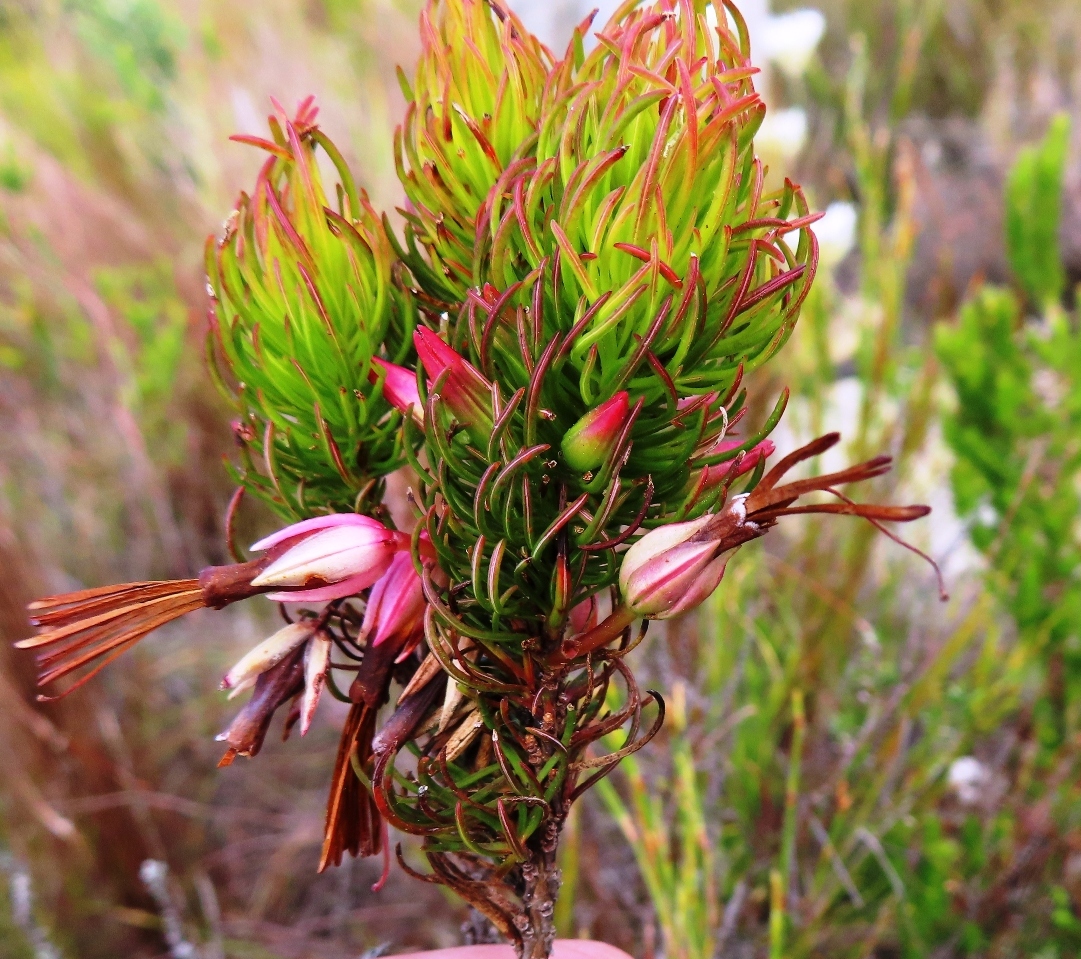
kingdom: Plantae
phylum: Tracheophyta
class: Magnoliopsida
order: Ericales
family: Ericaceae
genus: Erica
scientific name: Erica plukenetii
